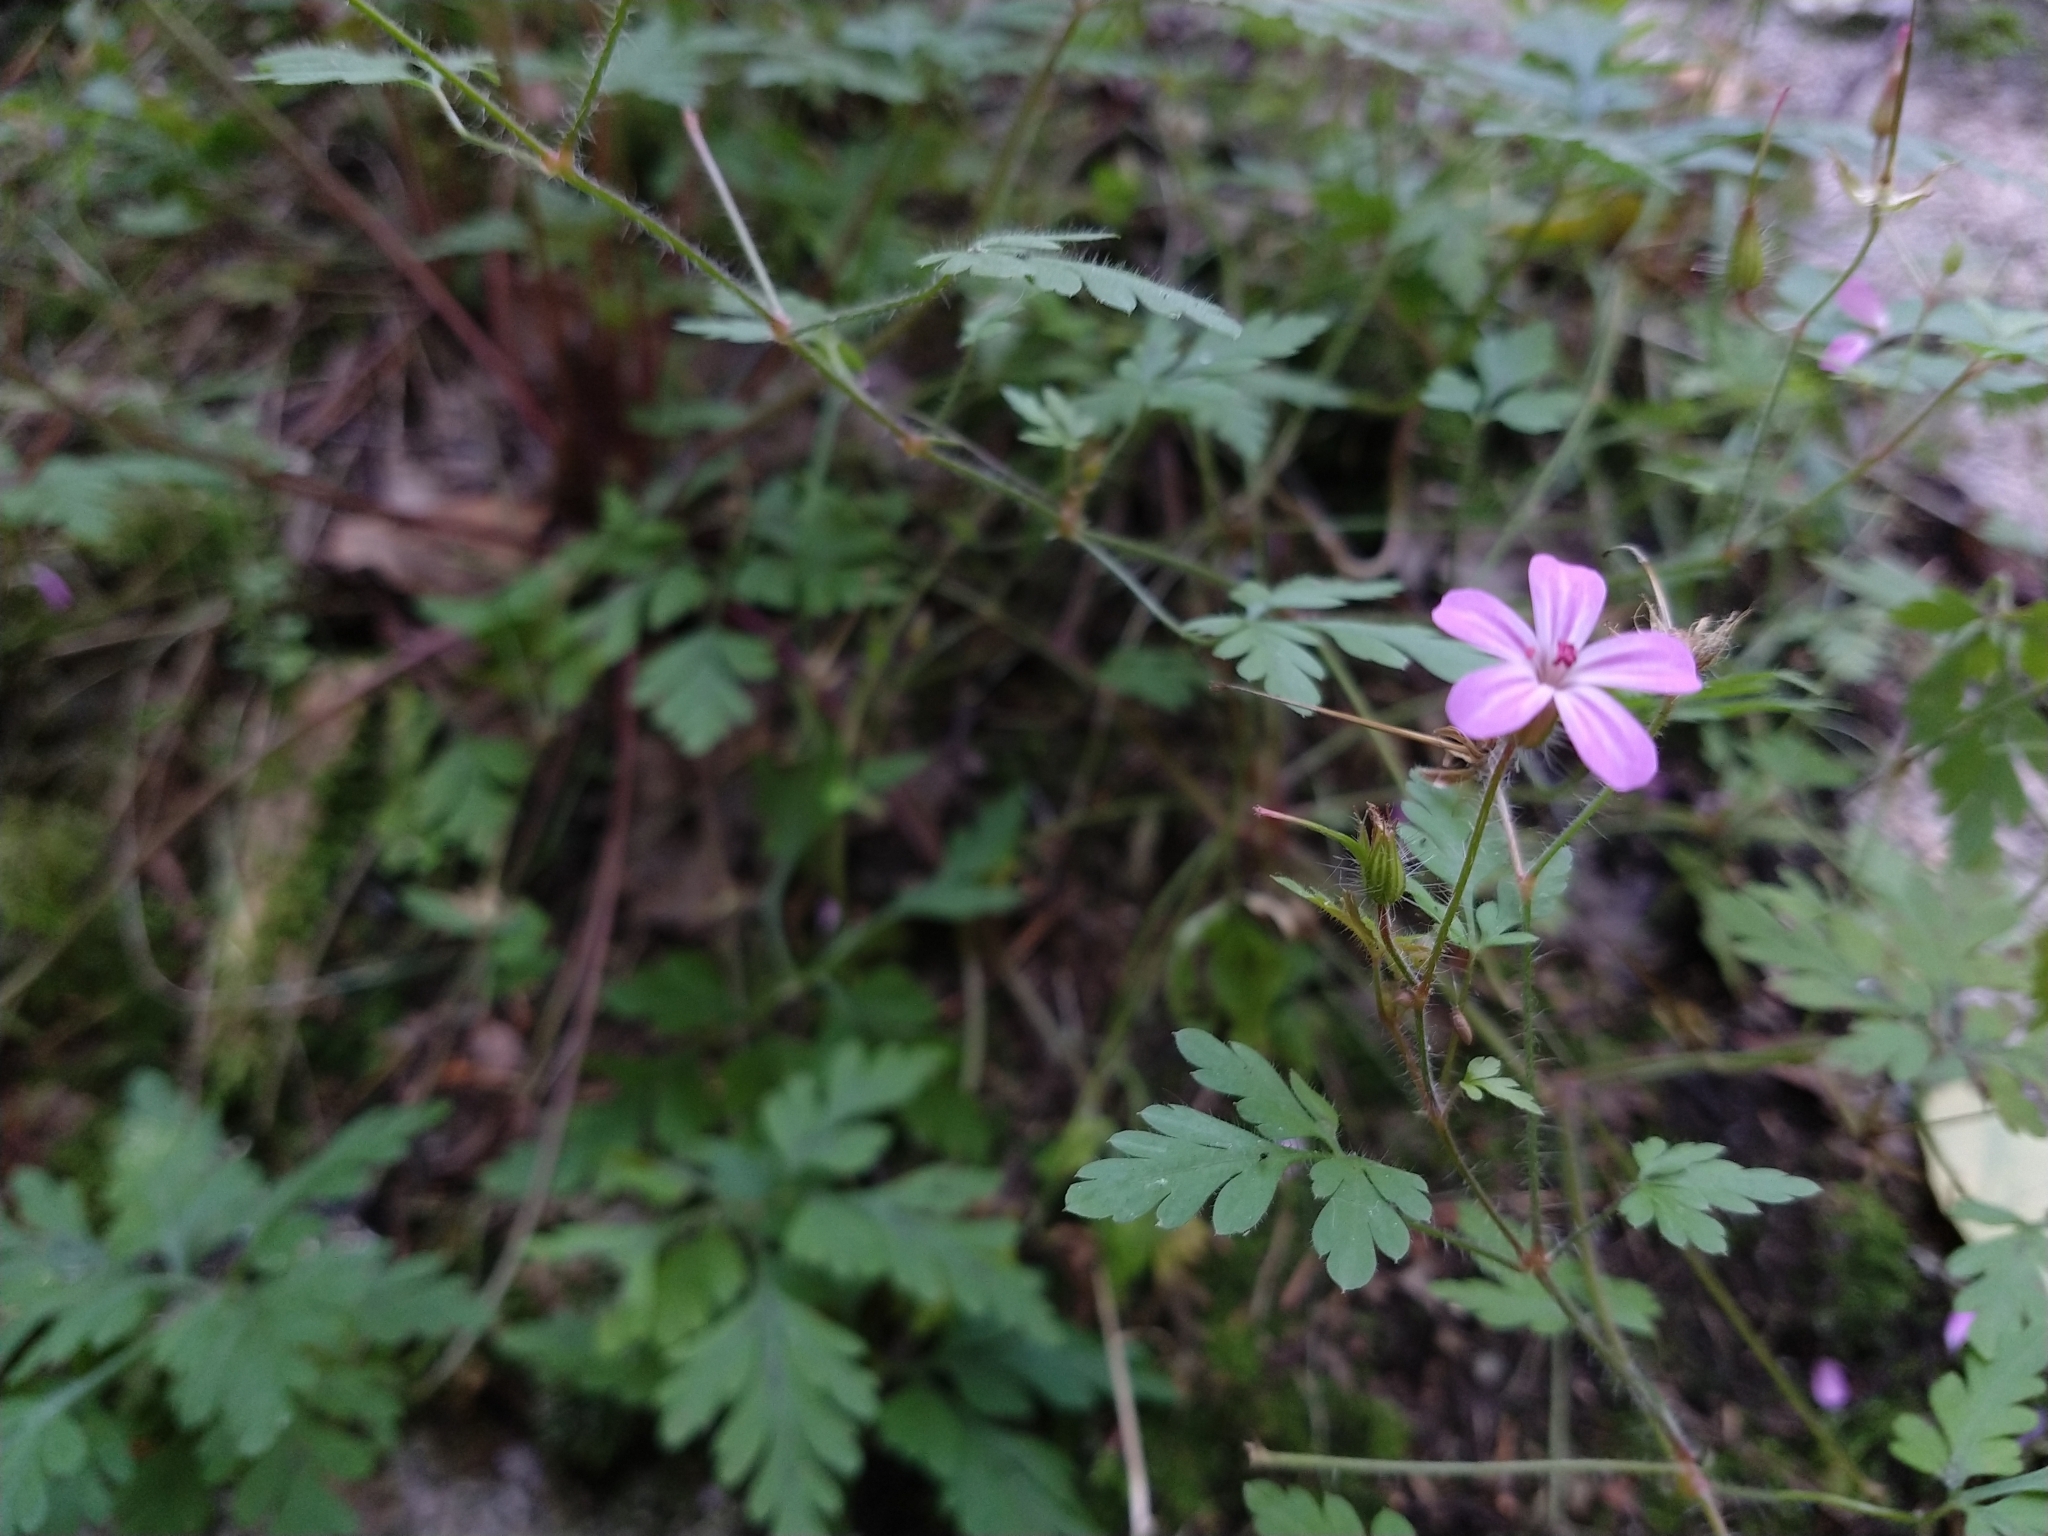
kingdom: Plantae
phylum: Tracheophyta
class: Magnoliopsida
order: Geraniales
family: Geraniaceae
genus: Geranium
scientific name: Geranium robertianum
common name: Herb-robert
